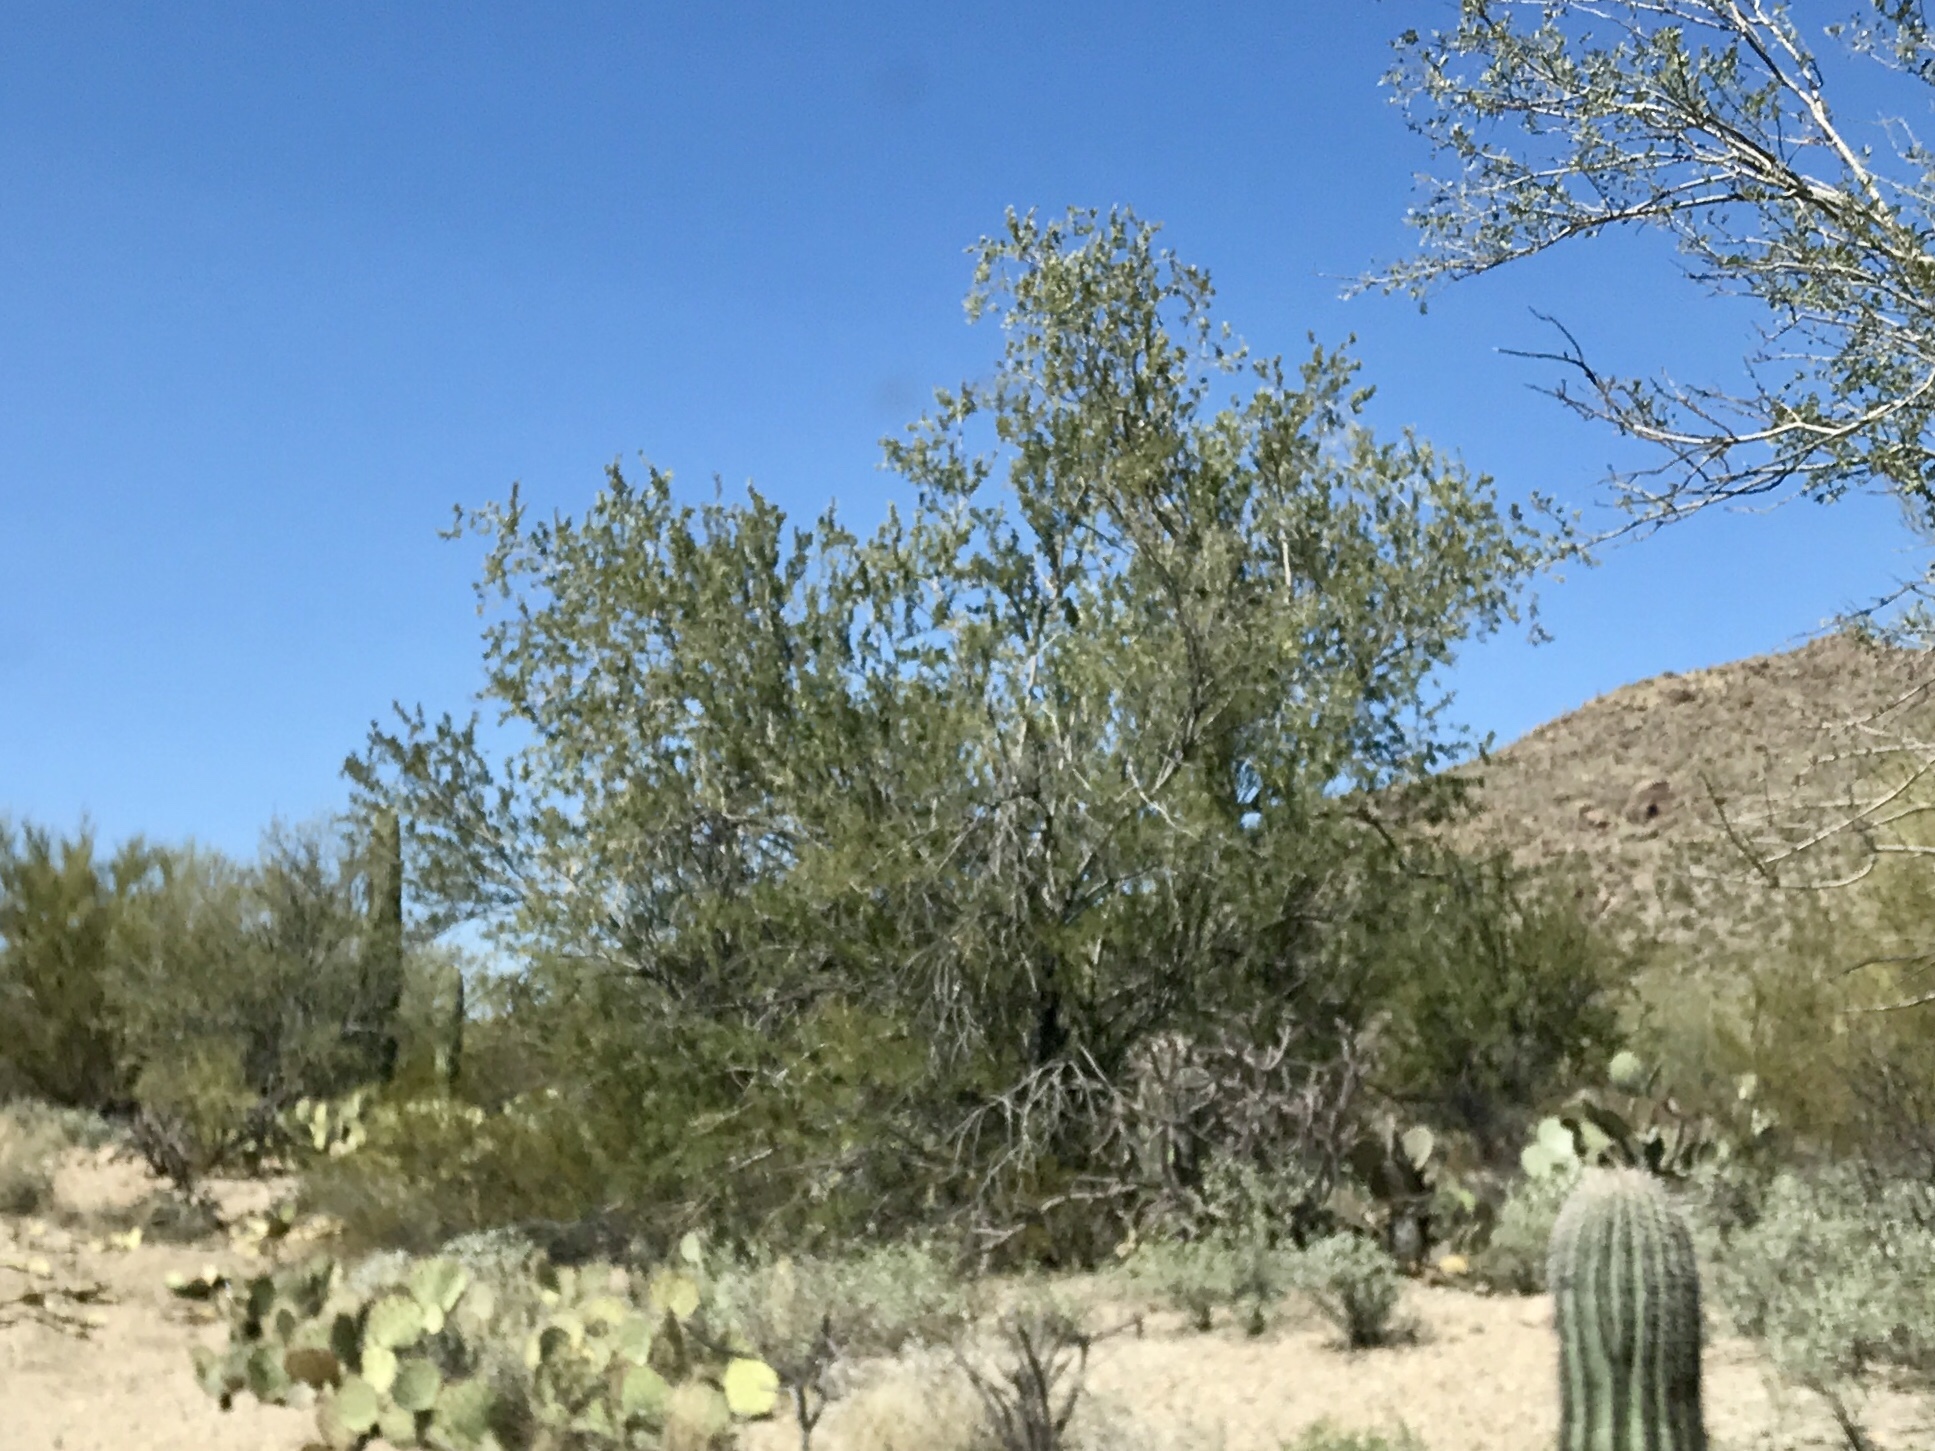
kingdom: Plantae
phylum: Tracheophyta
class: Magnoliopsida
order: Fabales
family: Fabaceae
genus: Olneya
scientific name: Olneya tesota
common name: Desert ironwood
